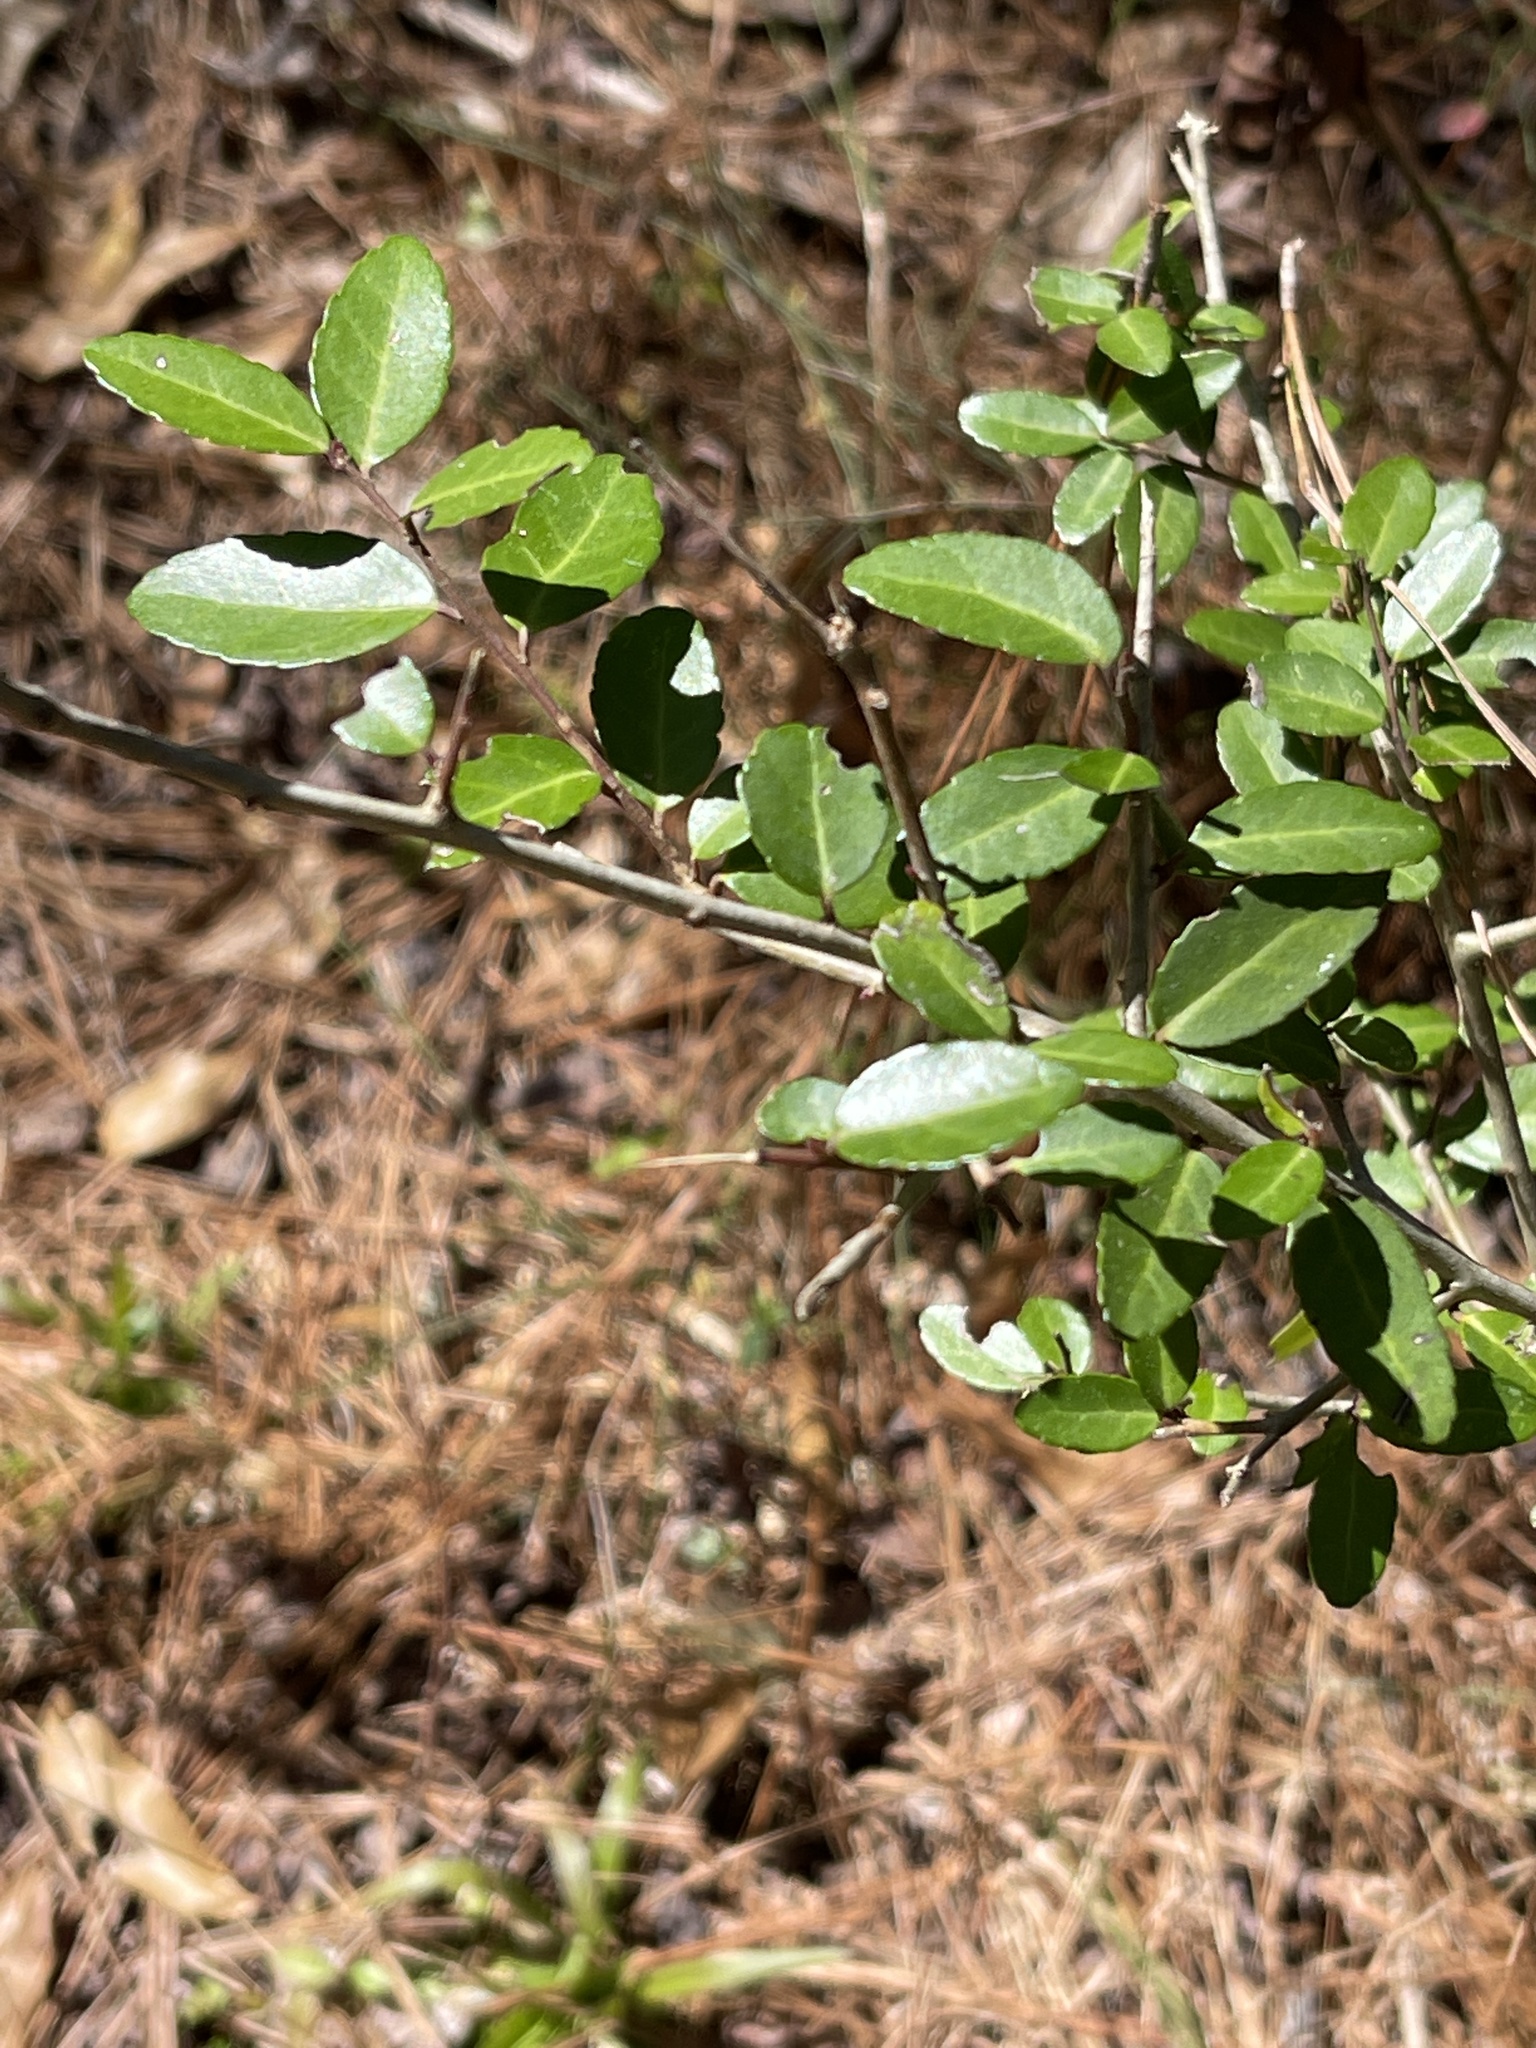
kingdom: Plantae
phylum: Tracheophyta
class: Magnoliopsida
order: Aquifoliales
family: Aquifoliaceae
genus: Ilex
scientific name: Ilex vomitoria
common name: Yaupon holly
